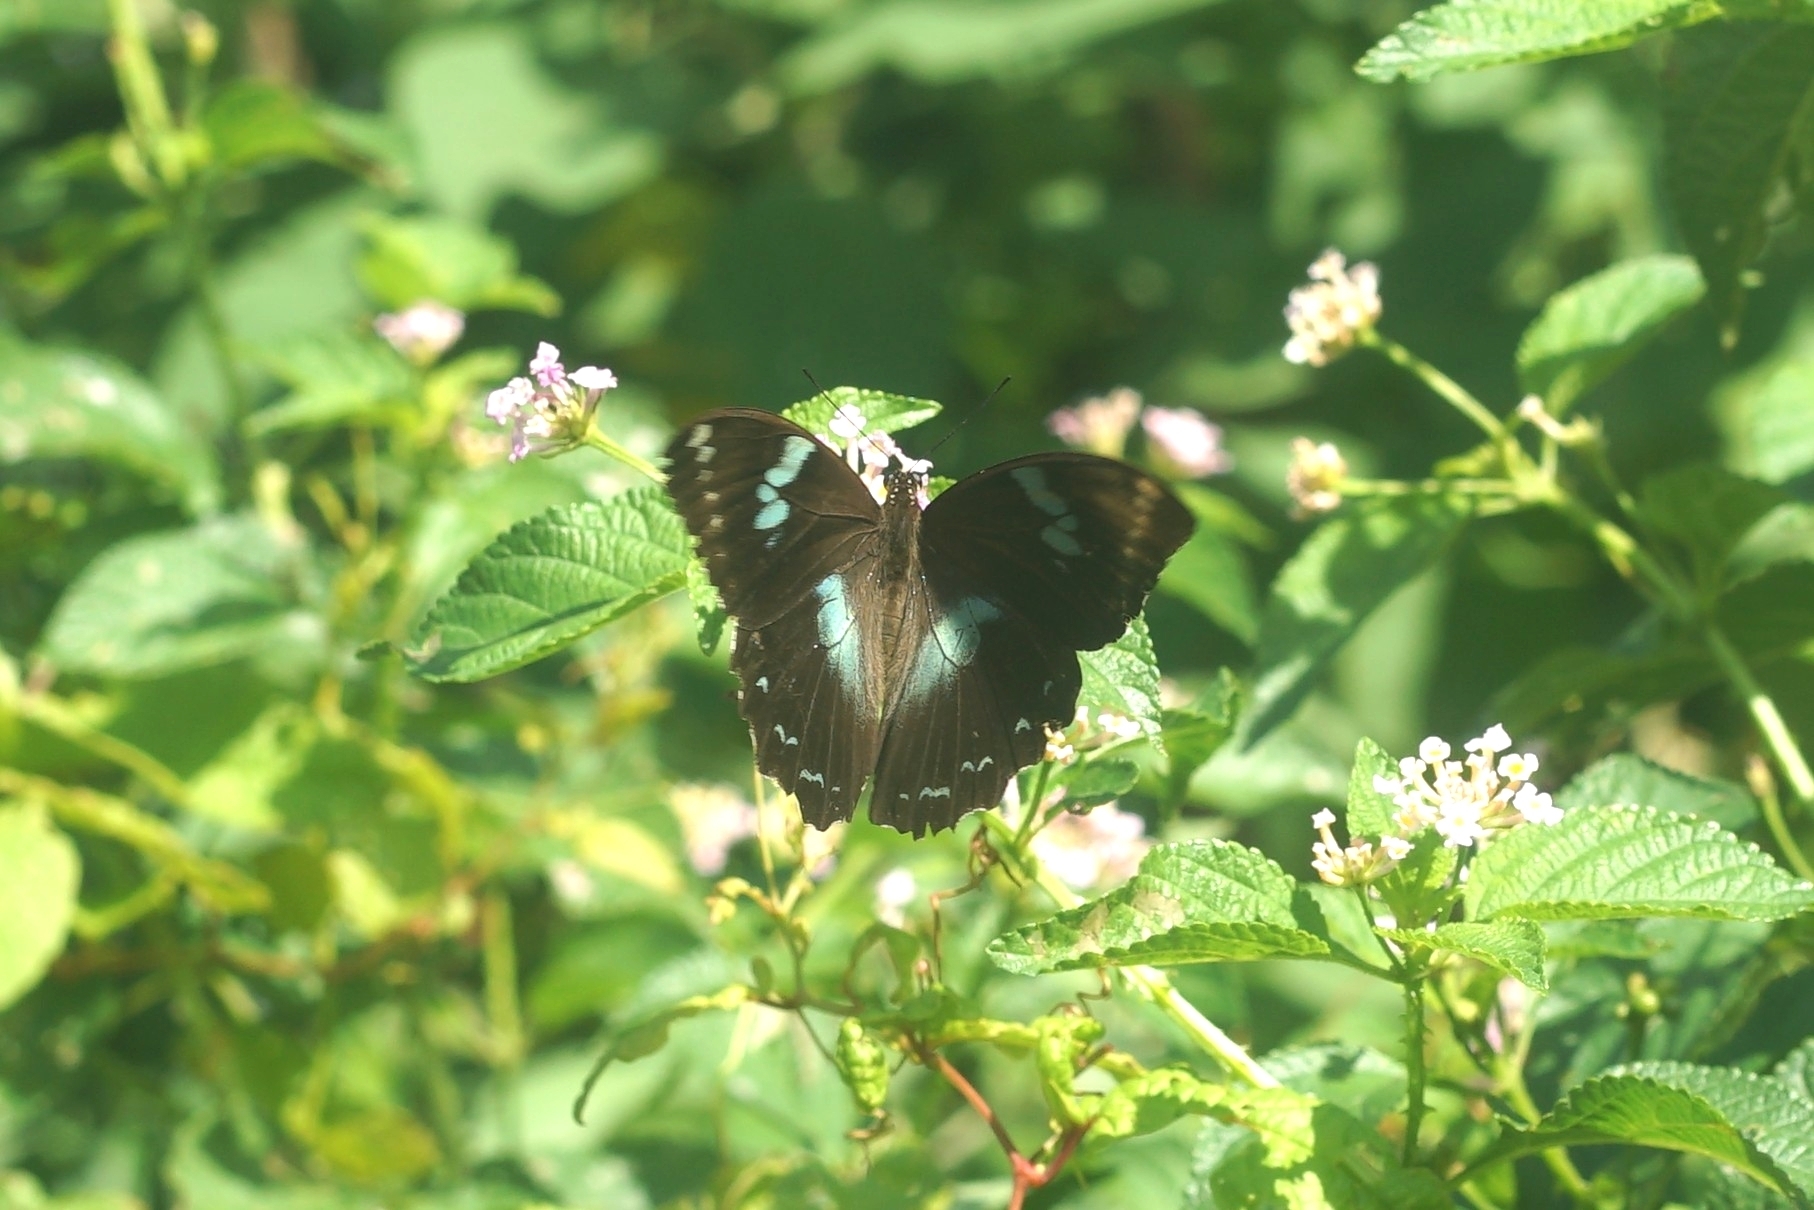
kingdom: Animalia
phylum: Arthropoda
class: Insecta
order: Lepidoptera
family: Papilionidae
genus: Papilio
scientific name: Papilio manlius
